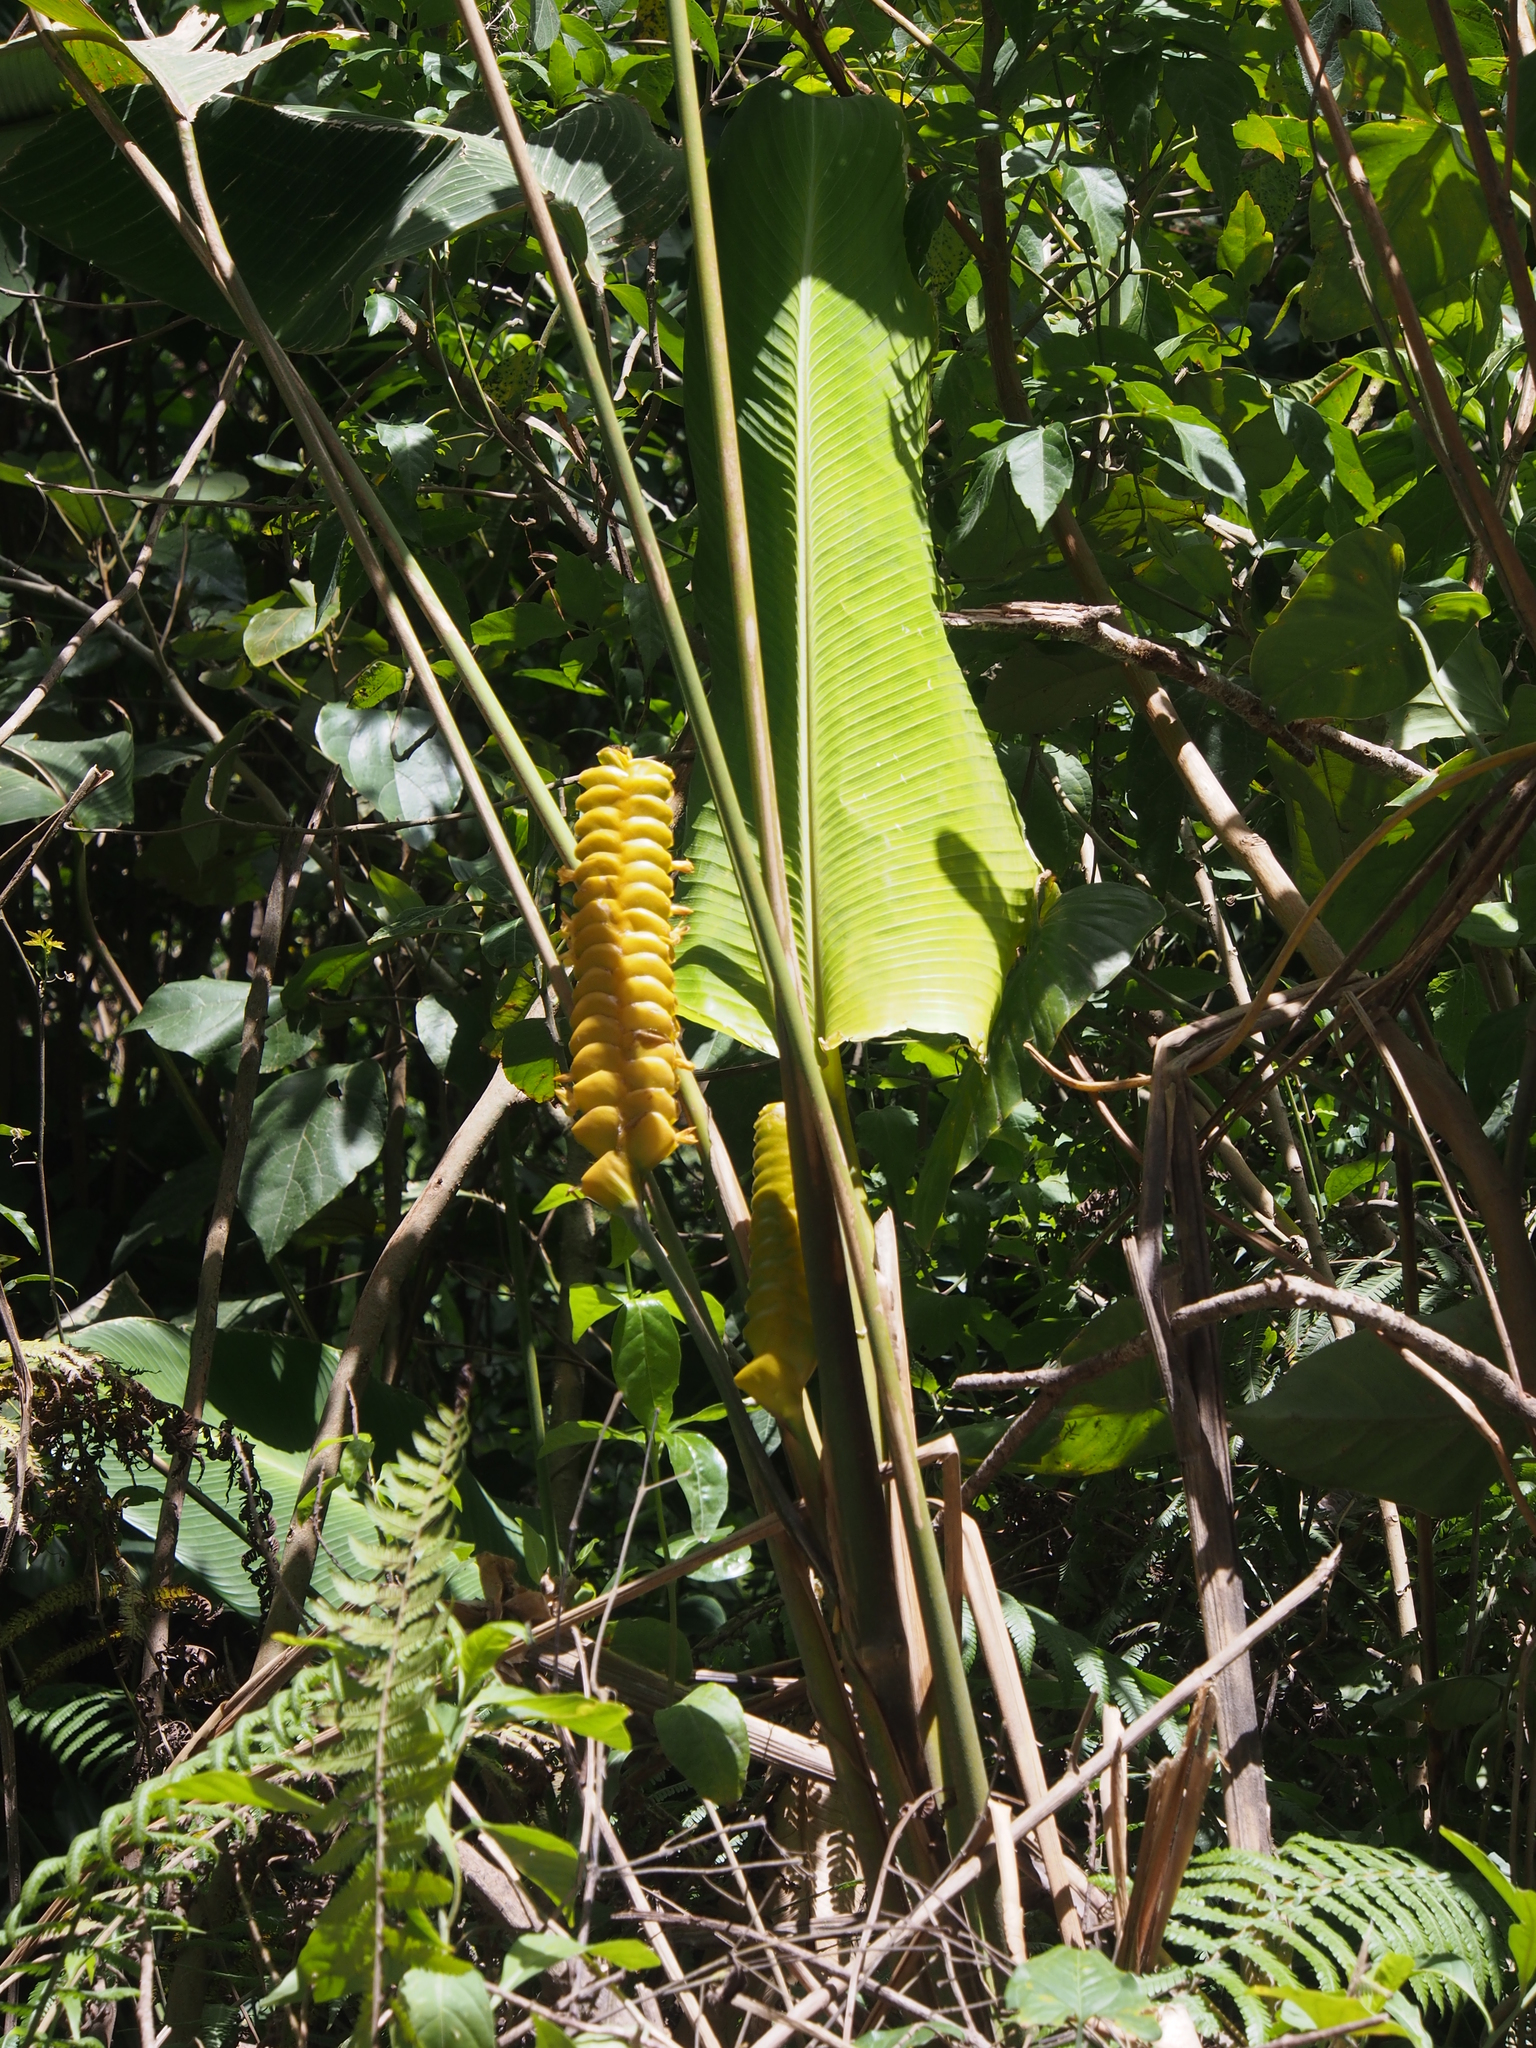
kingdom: Plantae
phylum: Tracheophyta
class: Liliopsida
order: Zingiberales
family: Marantaceae
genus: Calathea
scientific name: Calathea crotalifera
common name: Rattlesnake plant
